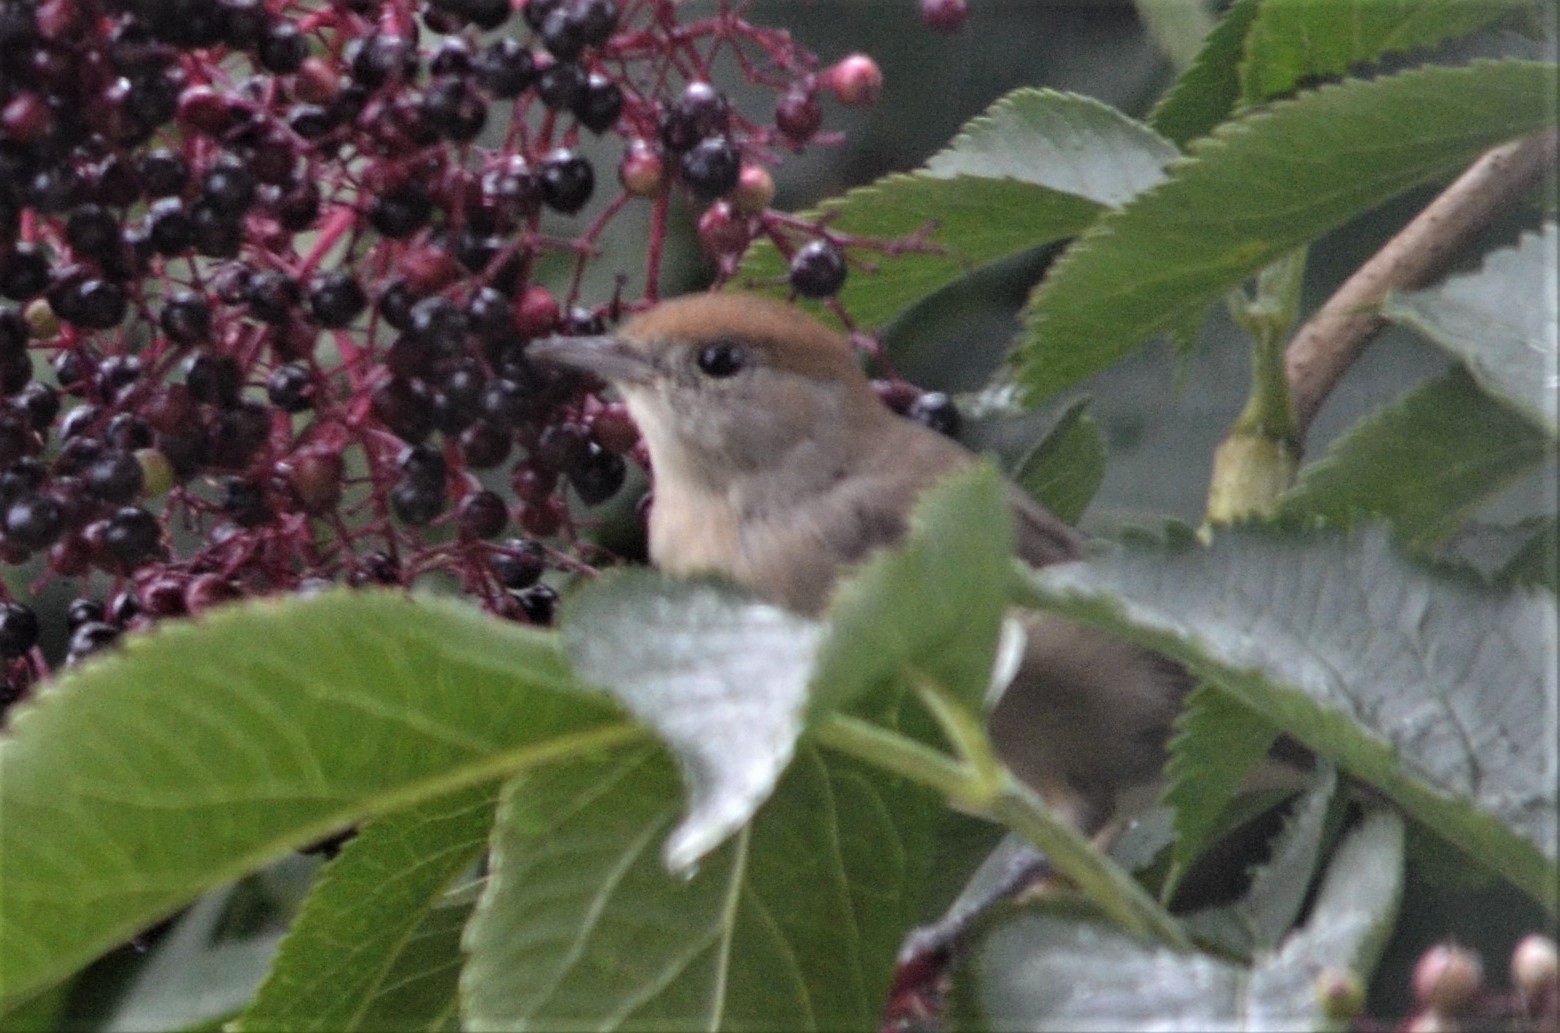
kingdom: Animalia
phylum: Chordata
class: Aves
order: Passeriformes
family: Sylviidae
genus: Sylvia
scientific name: Sylvia atricapilla
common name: Eurasian blackcap
